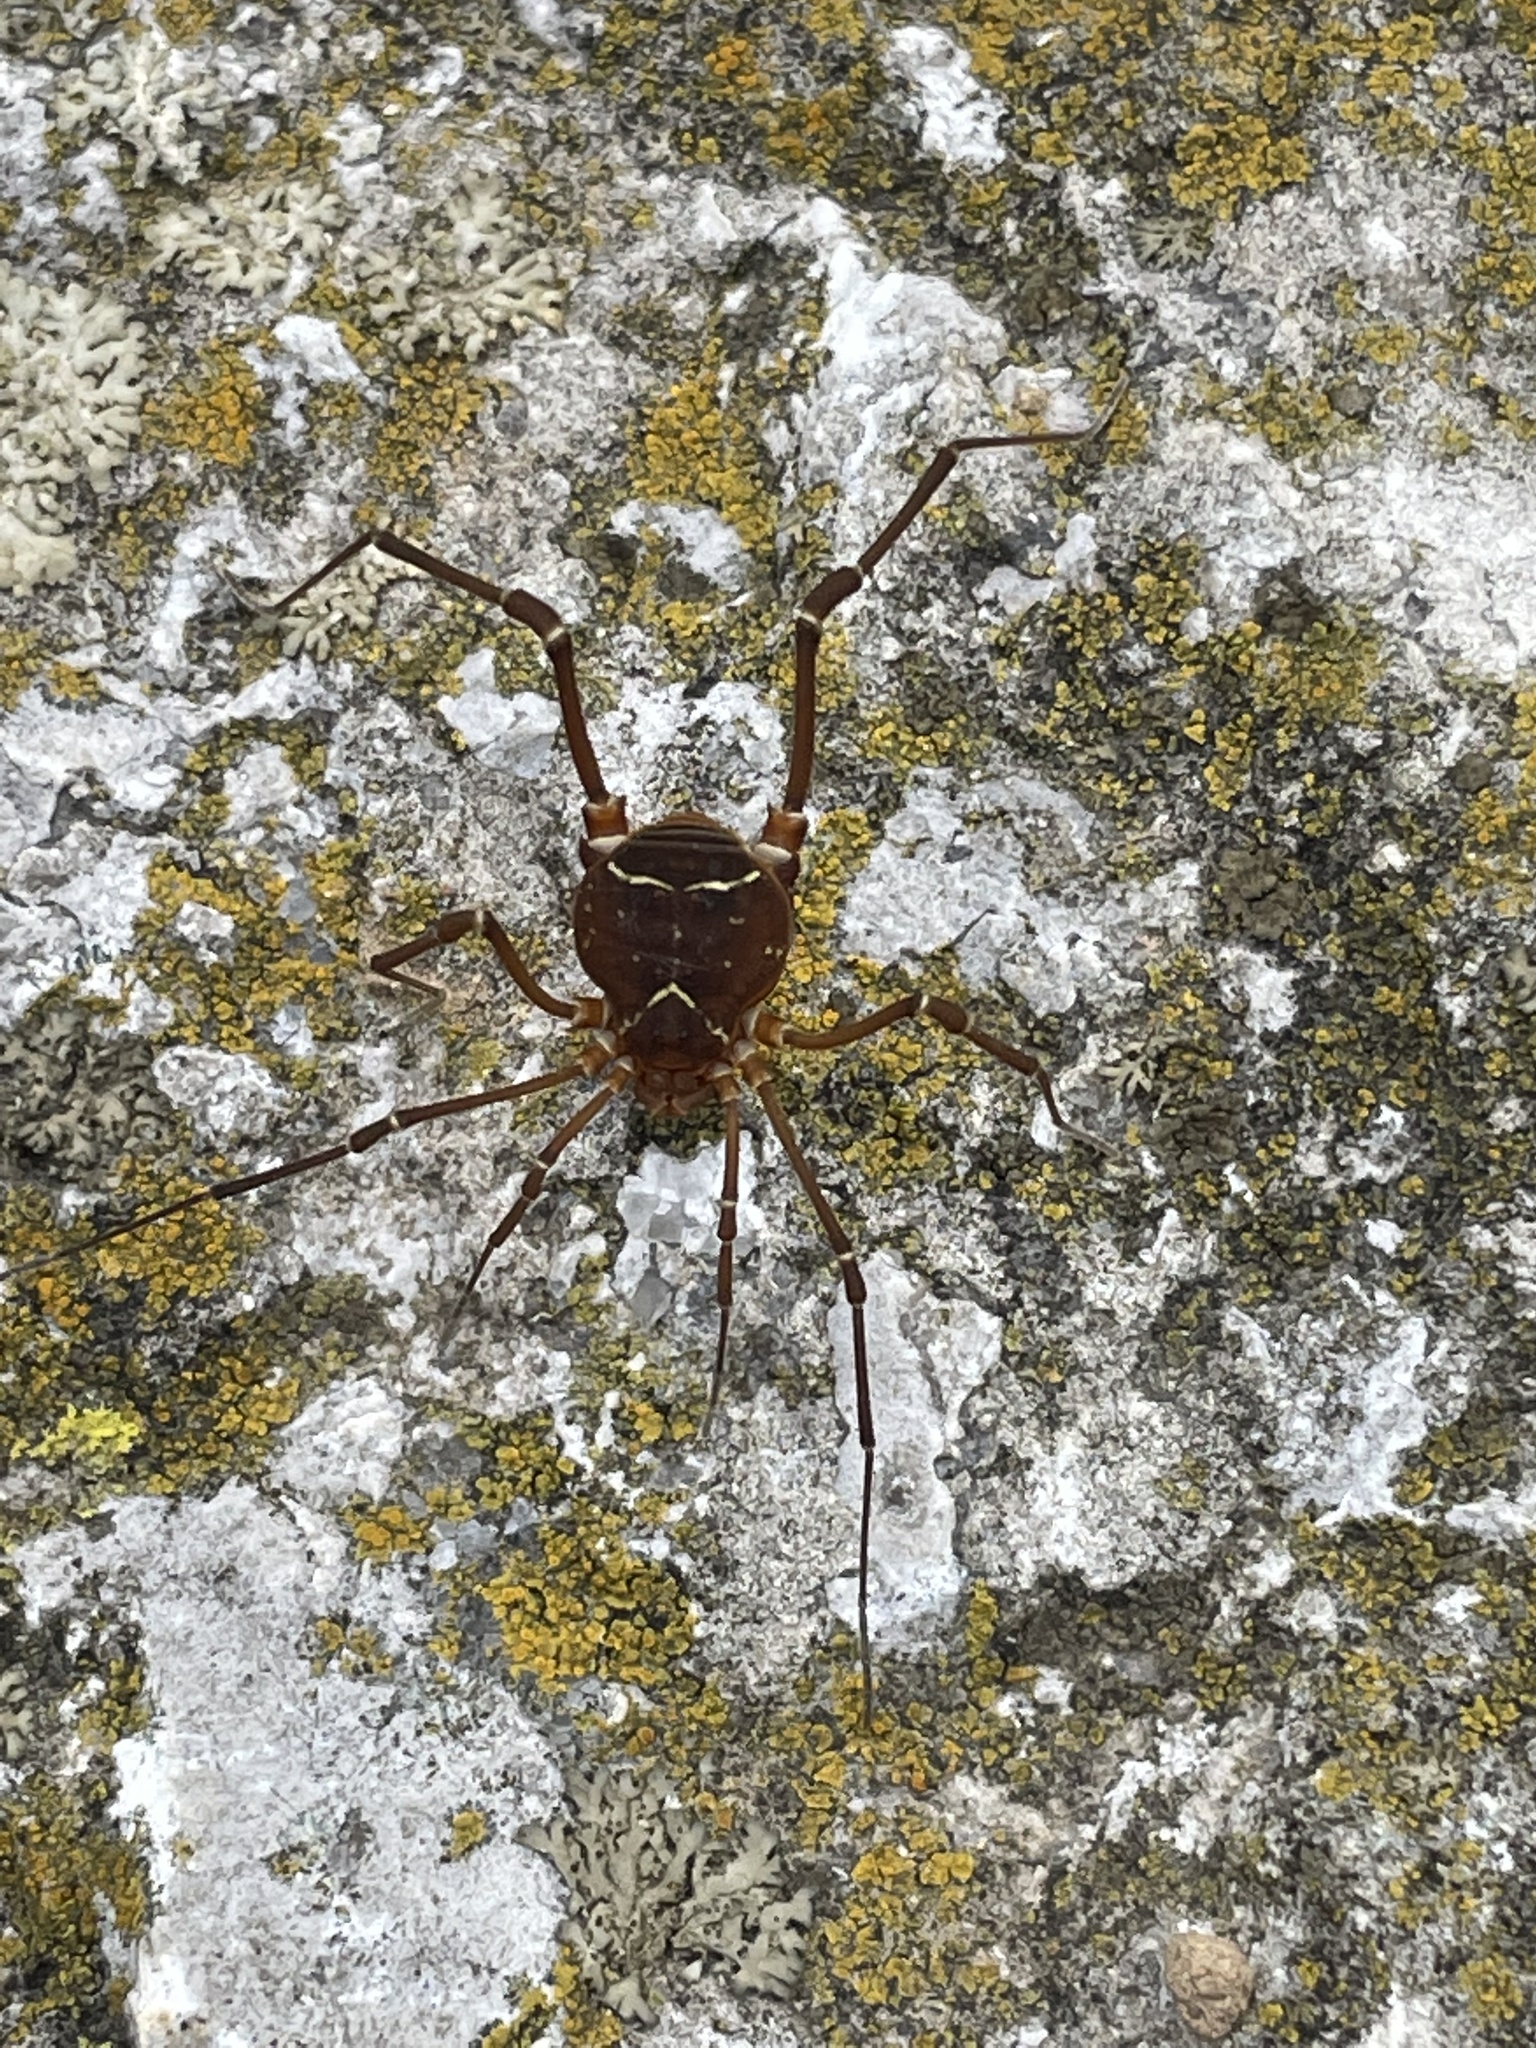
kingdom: Animalia
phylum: Arthropoda
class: Arachnida
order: Opiliones
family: Cosmetidae
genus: Libitioides
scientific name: Libitioides sayi
